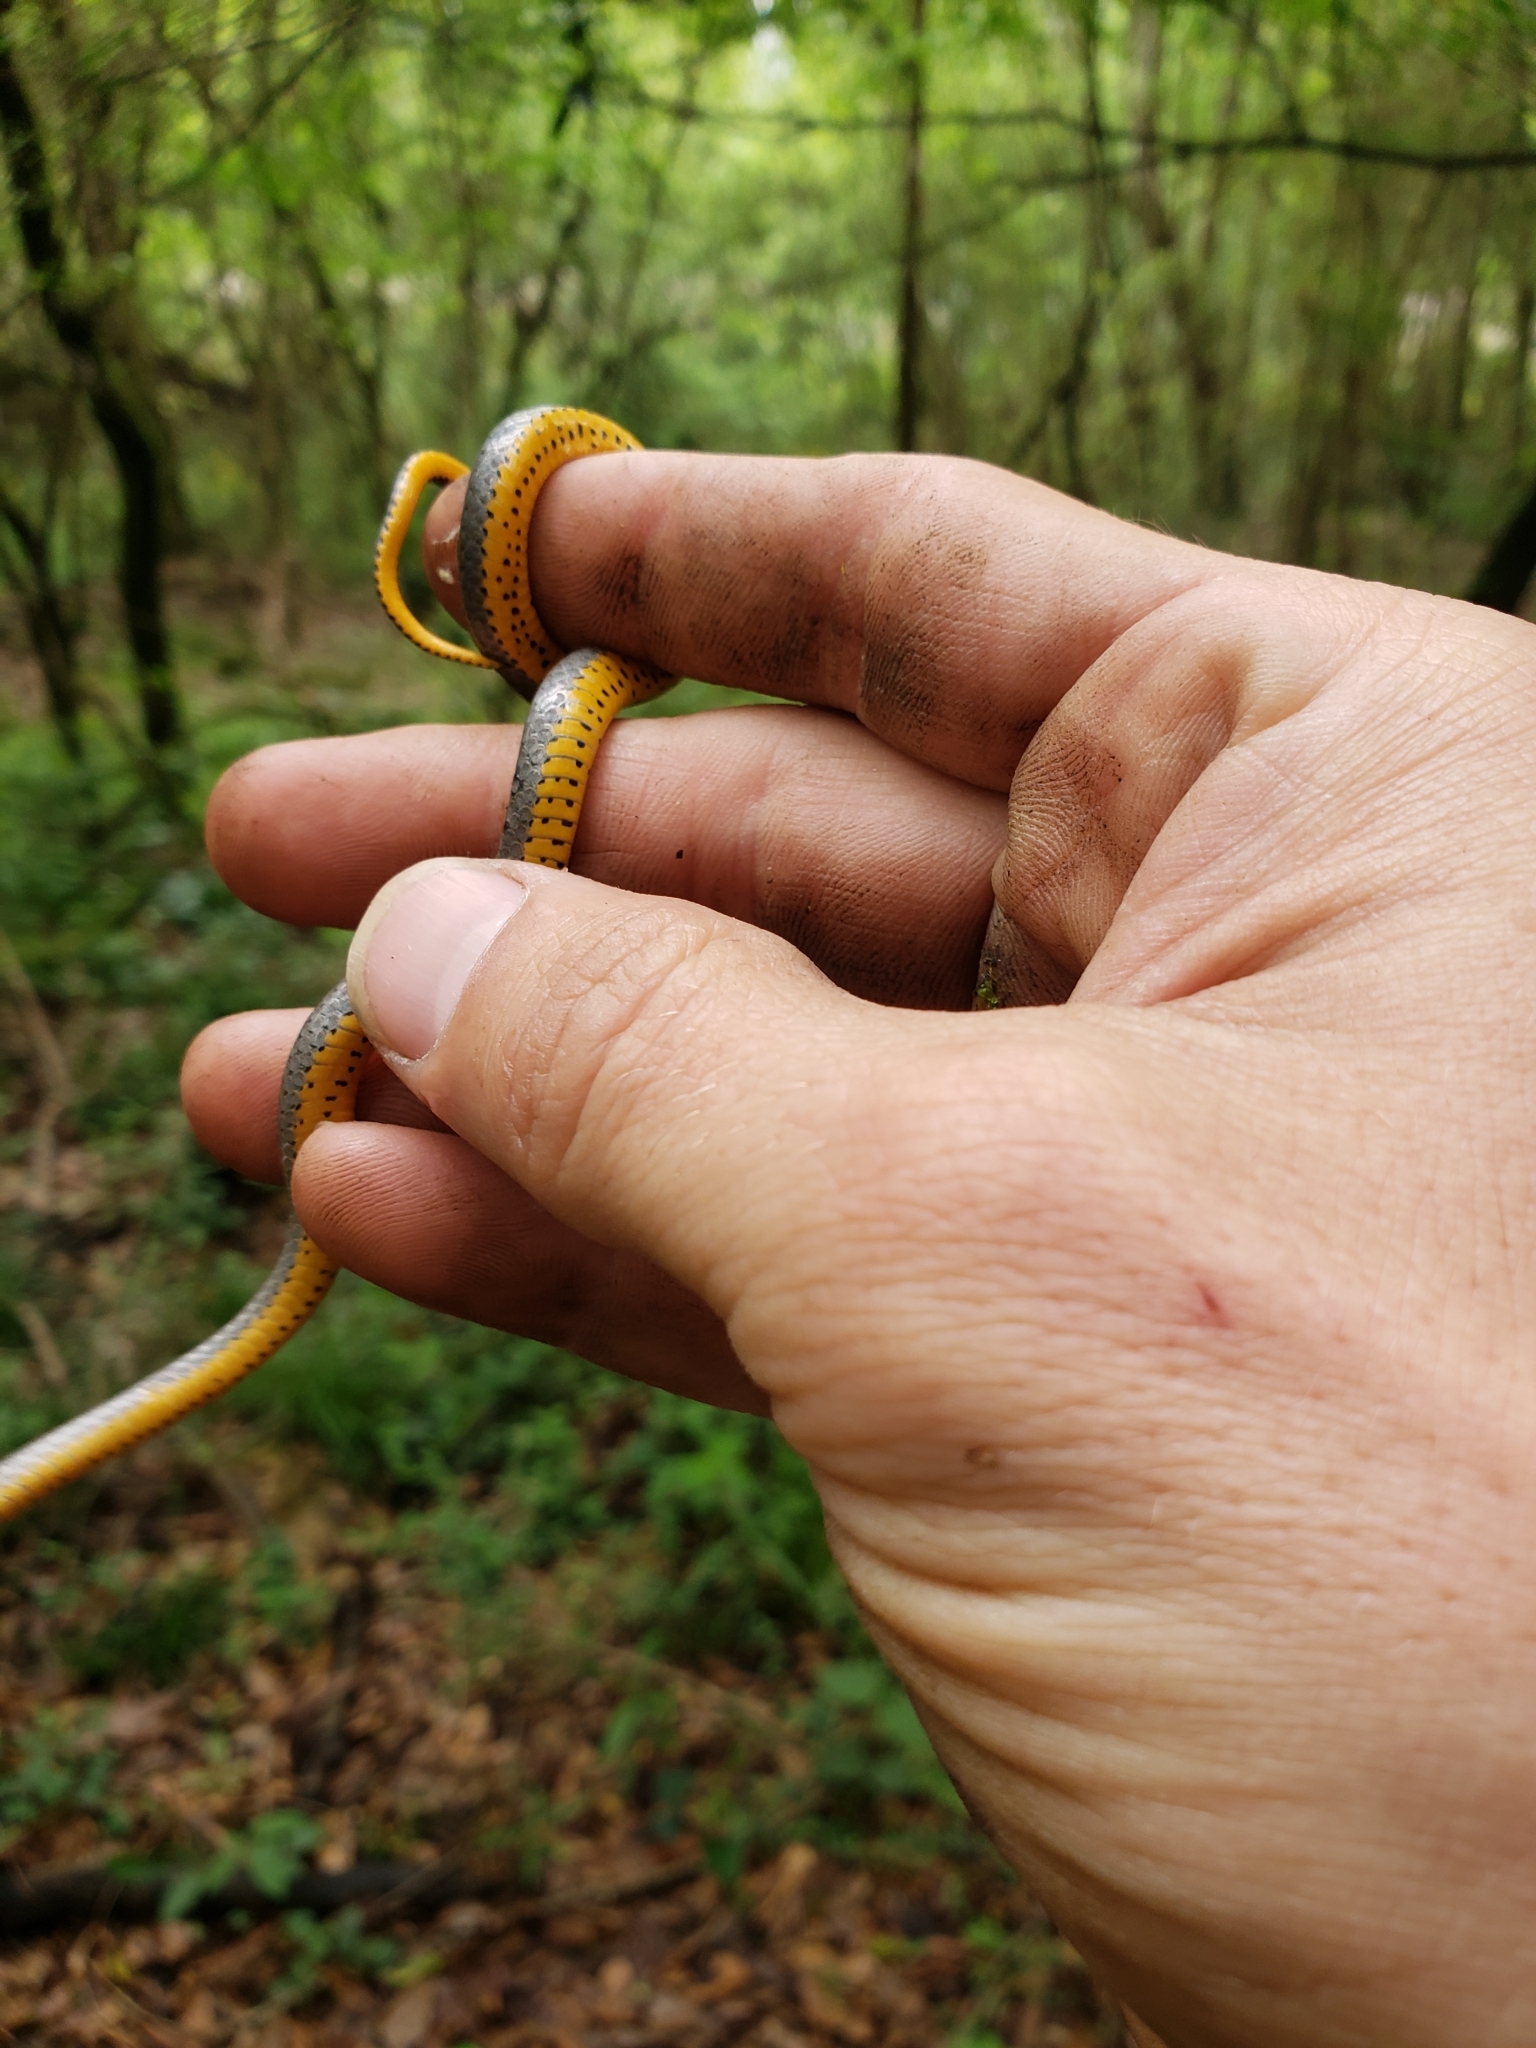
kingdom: Animalia
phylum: Chordata
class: Squamata
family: Colubridae
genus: Diadophis
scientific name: Diadophis punctatus
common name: Ringneck snake
